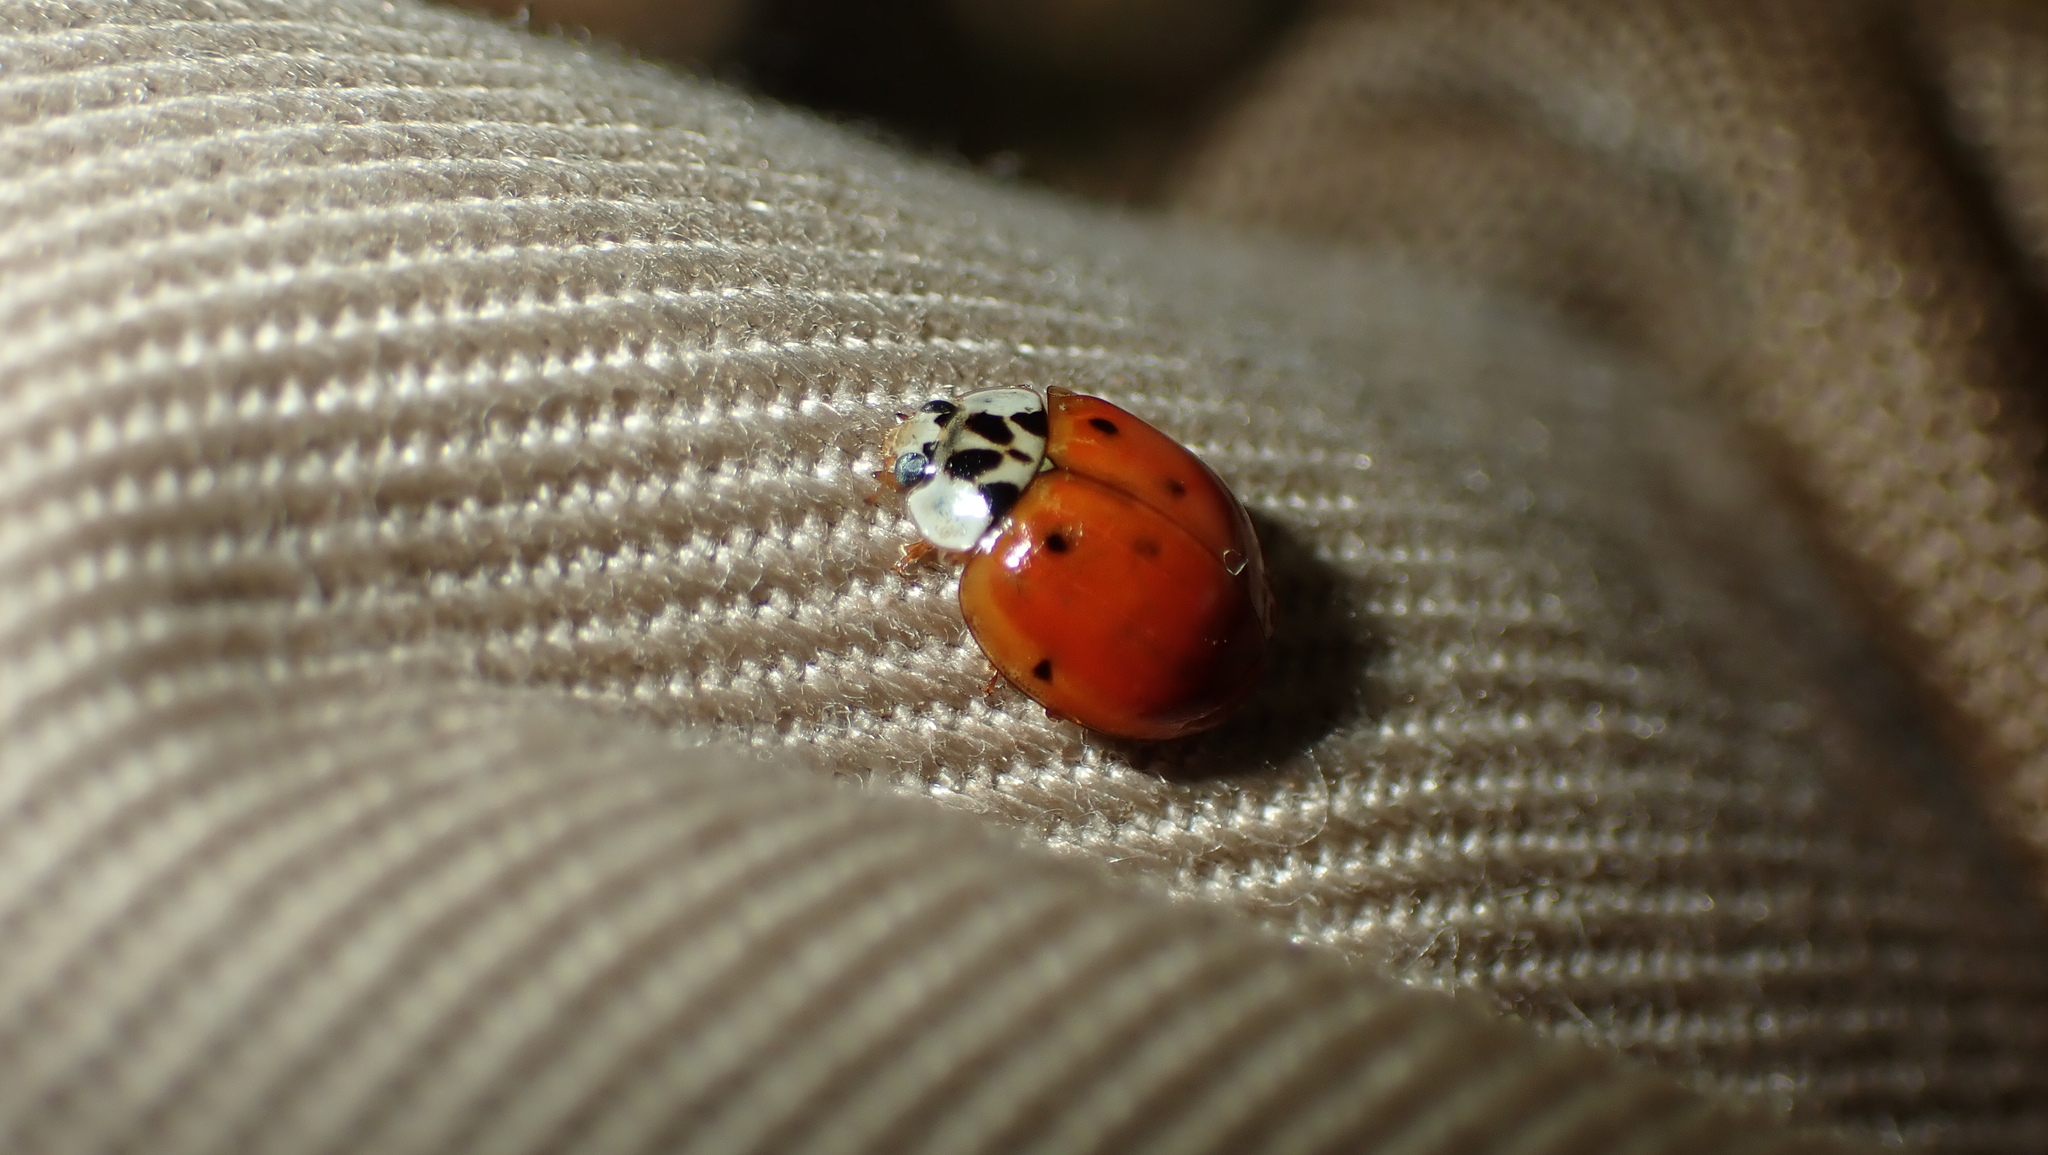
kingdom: Animalia
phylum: Arthropoda
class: Insecta
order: Coleoptera
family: Coccinellidae
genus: Harmonia
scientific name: Harmonia axyridis
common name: Harlequin ladybird
